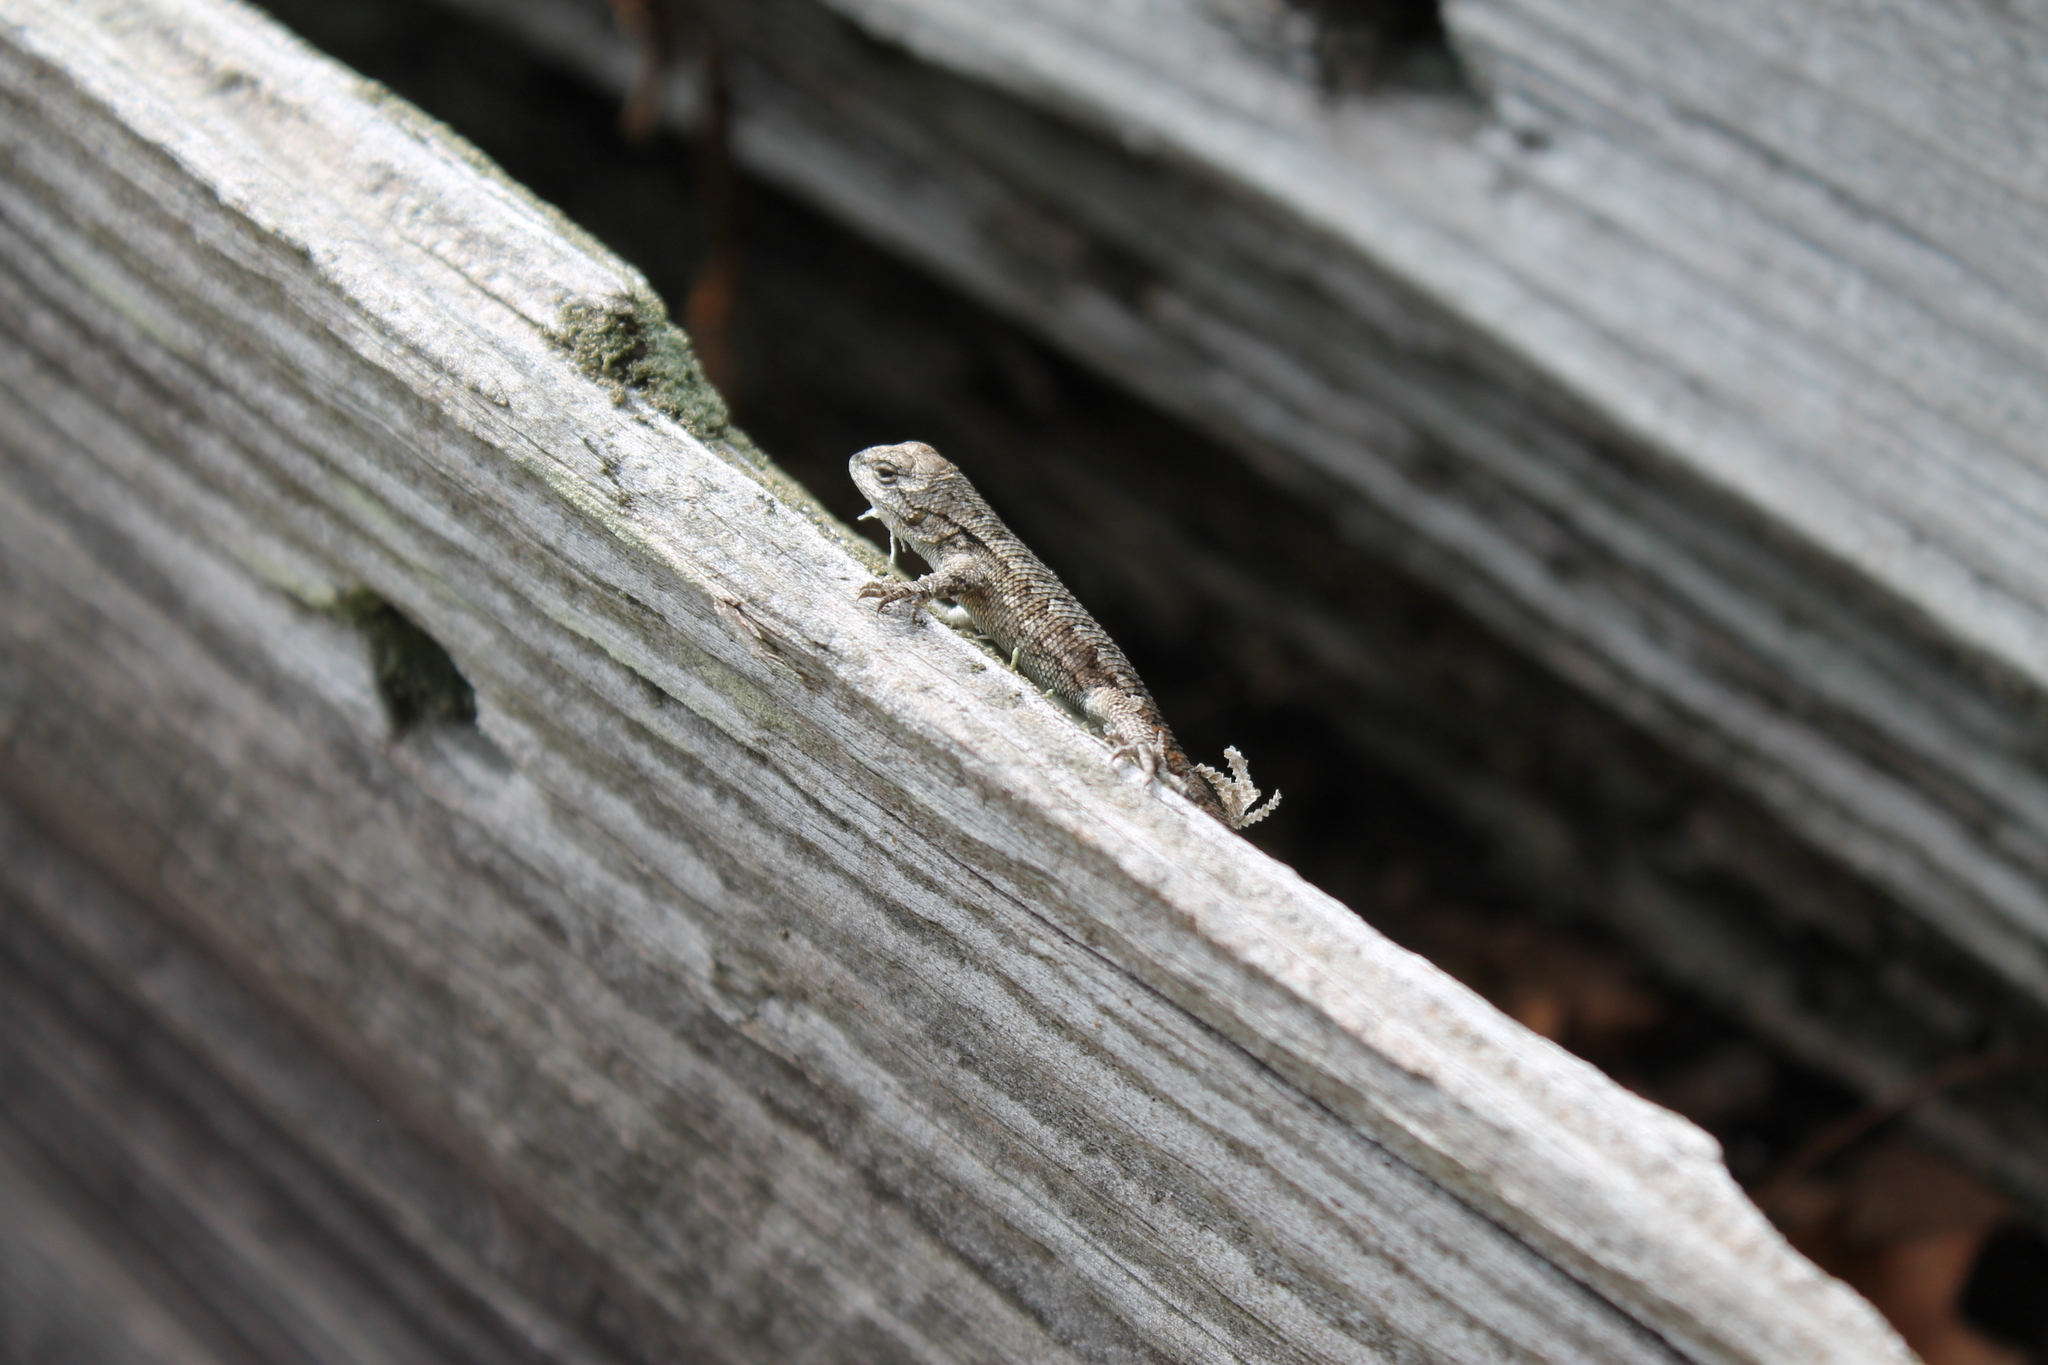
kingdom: Animalia
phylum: Chordata
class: Squamata
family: Phrynosomatidae
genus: Sceloporus
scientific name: Sceloporus undulatus
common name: Eastern fence lizard
